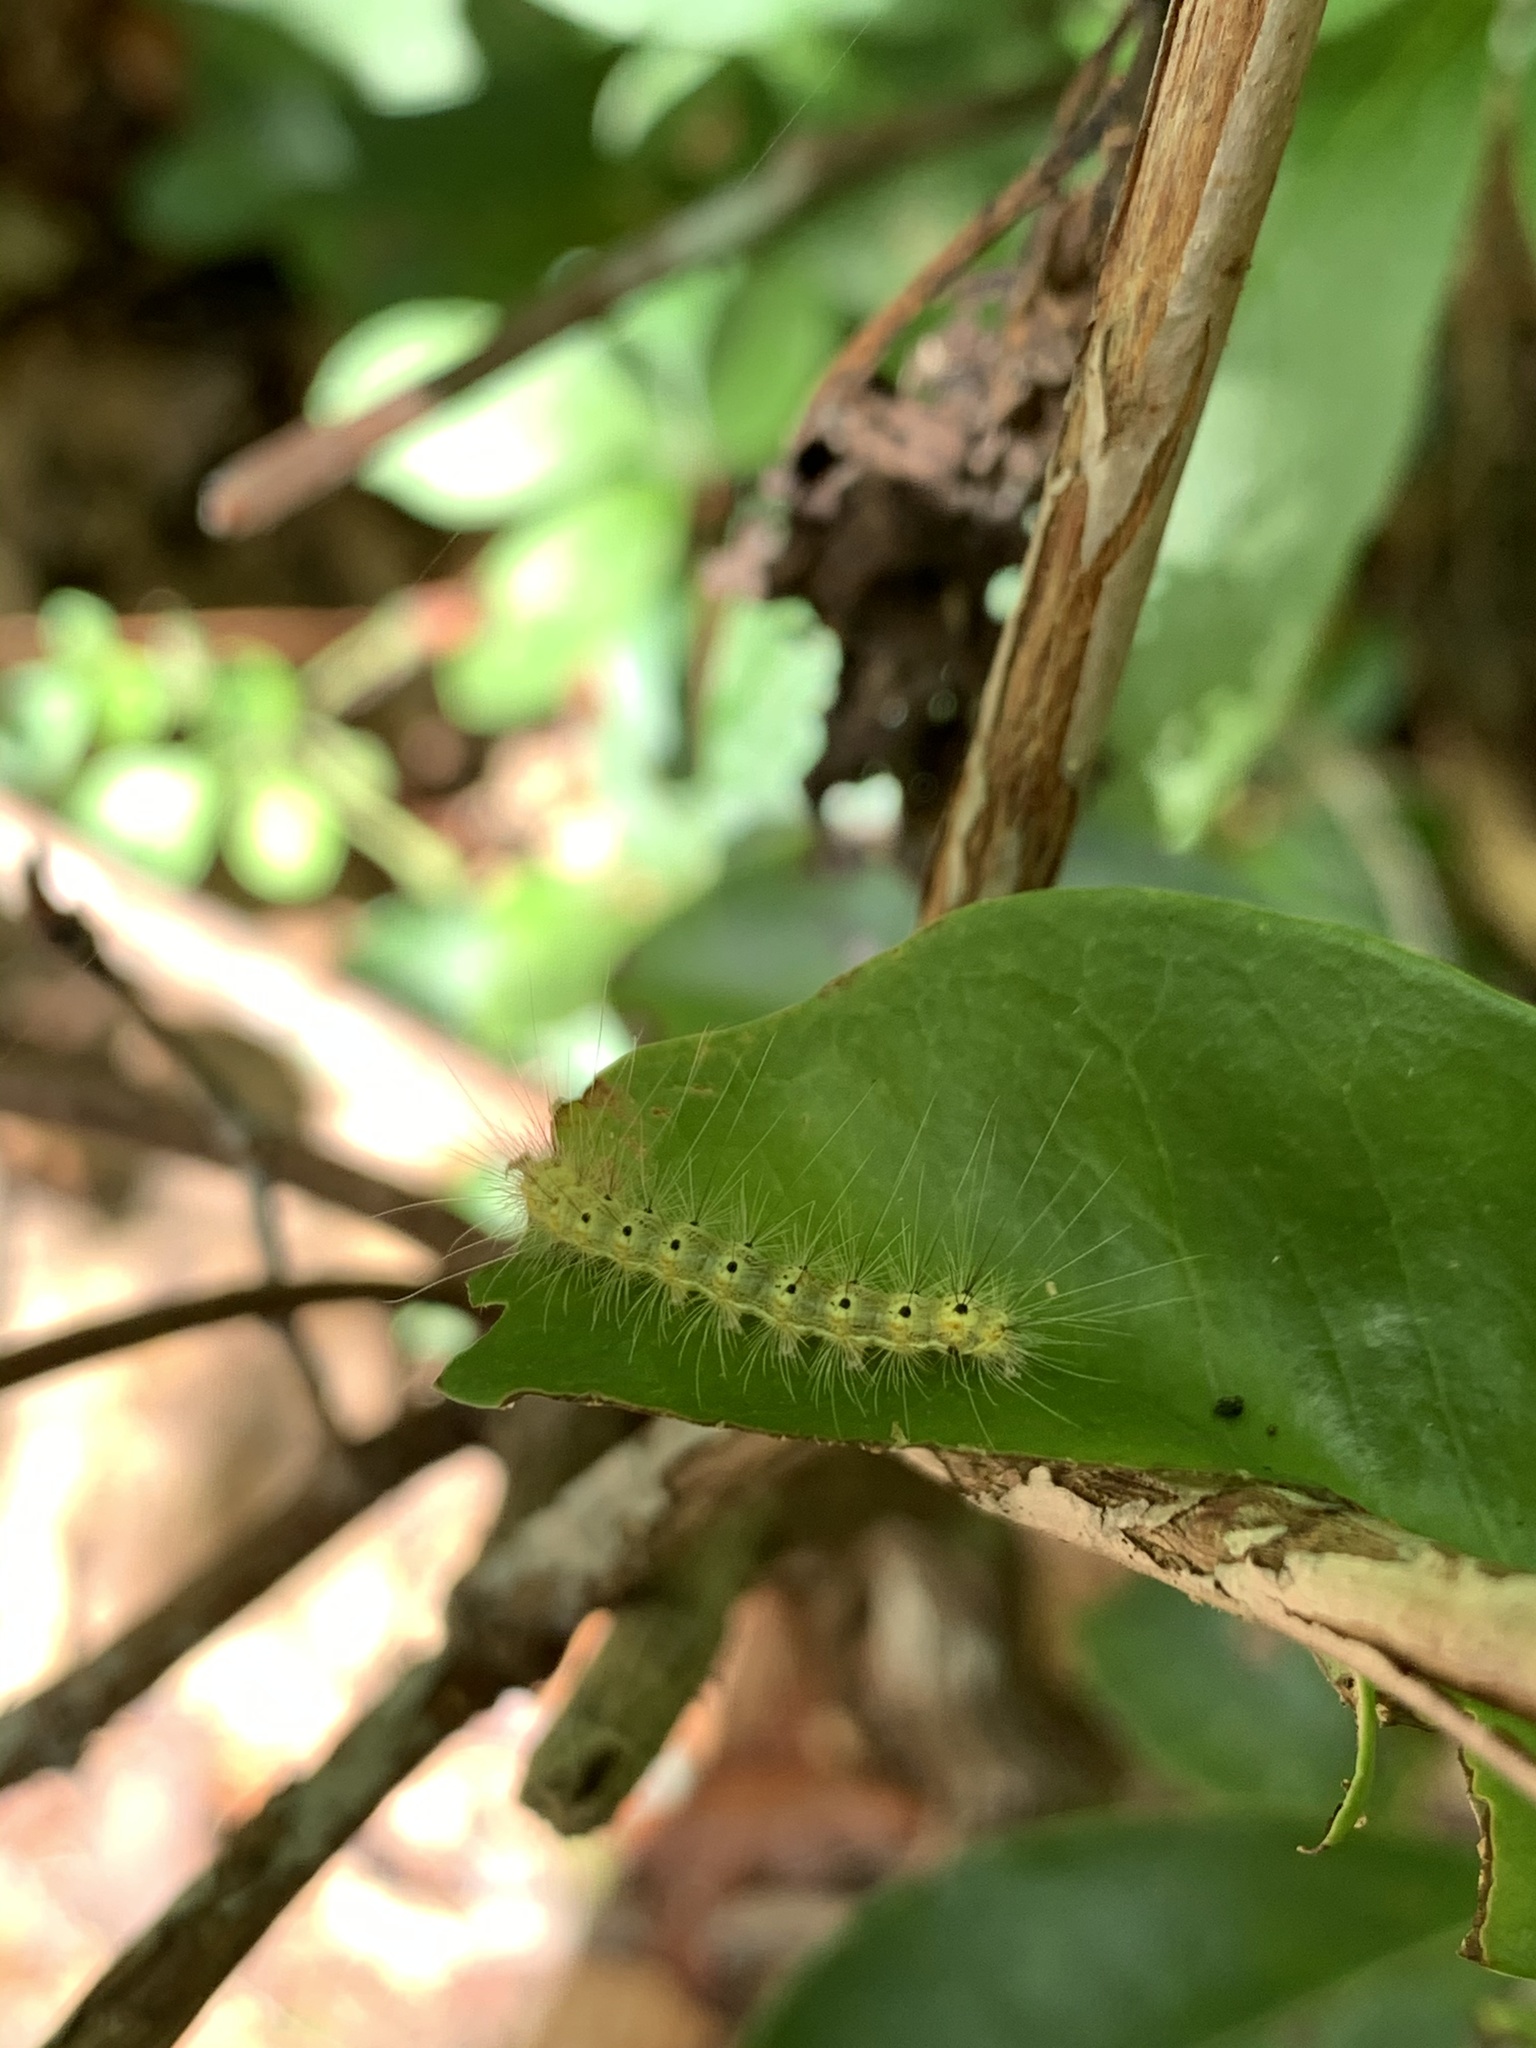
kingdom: Animalia
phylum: Arthropoda
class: Insecta
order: Lepidoptera
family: Erebidae
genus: Hyphantria
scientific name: Hyphantria cunea
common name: American white moth
